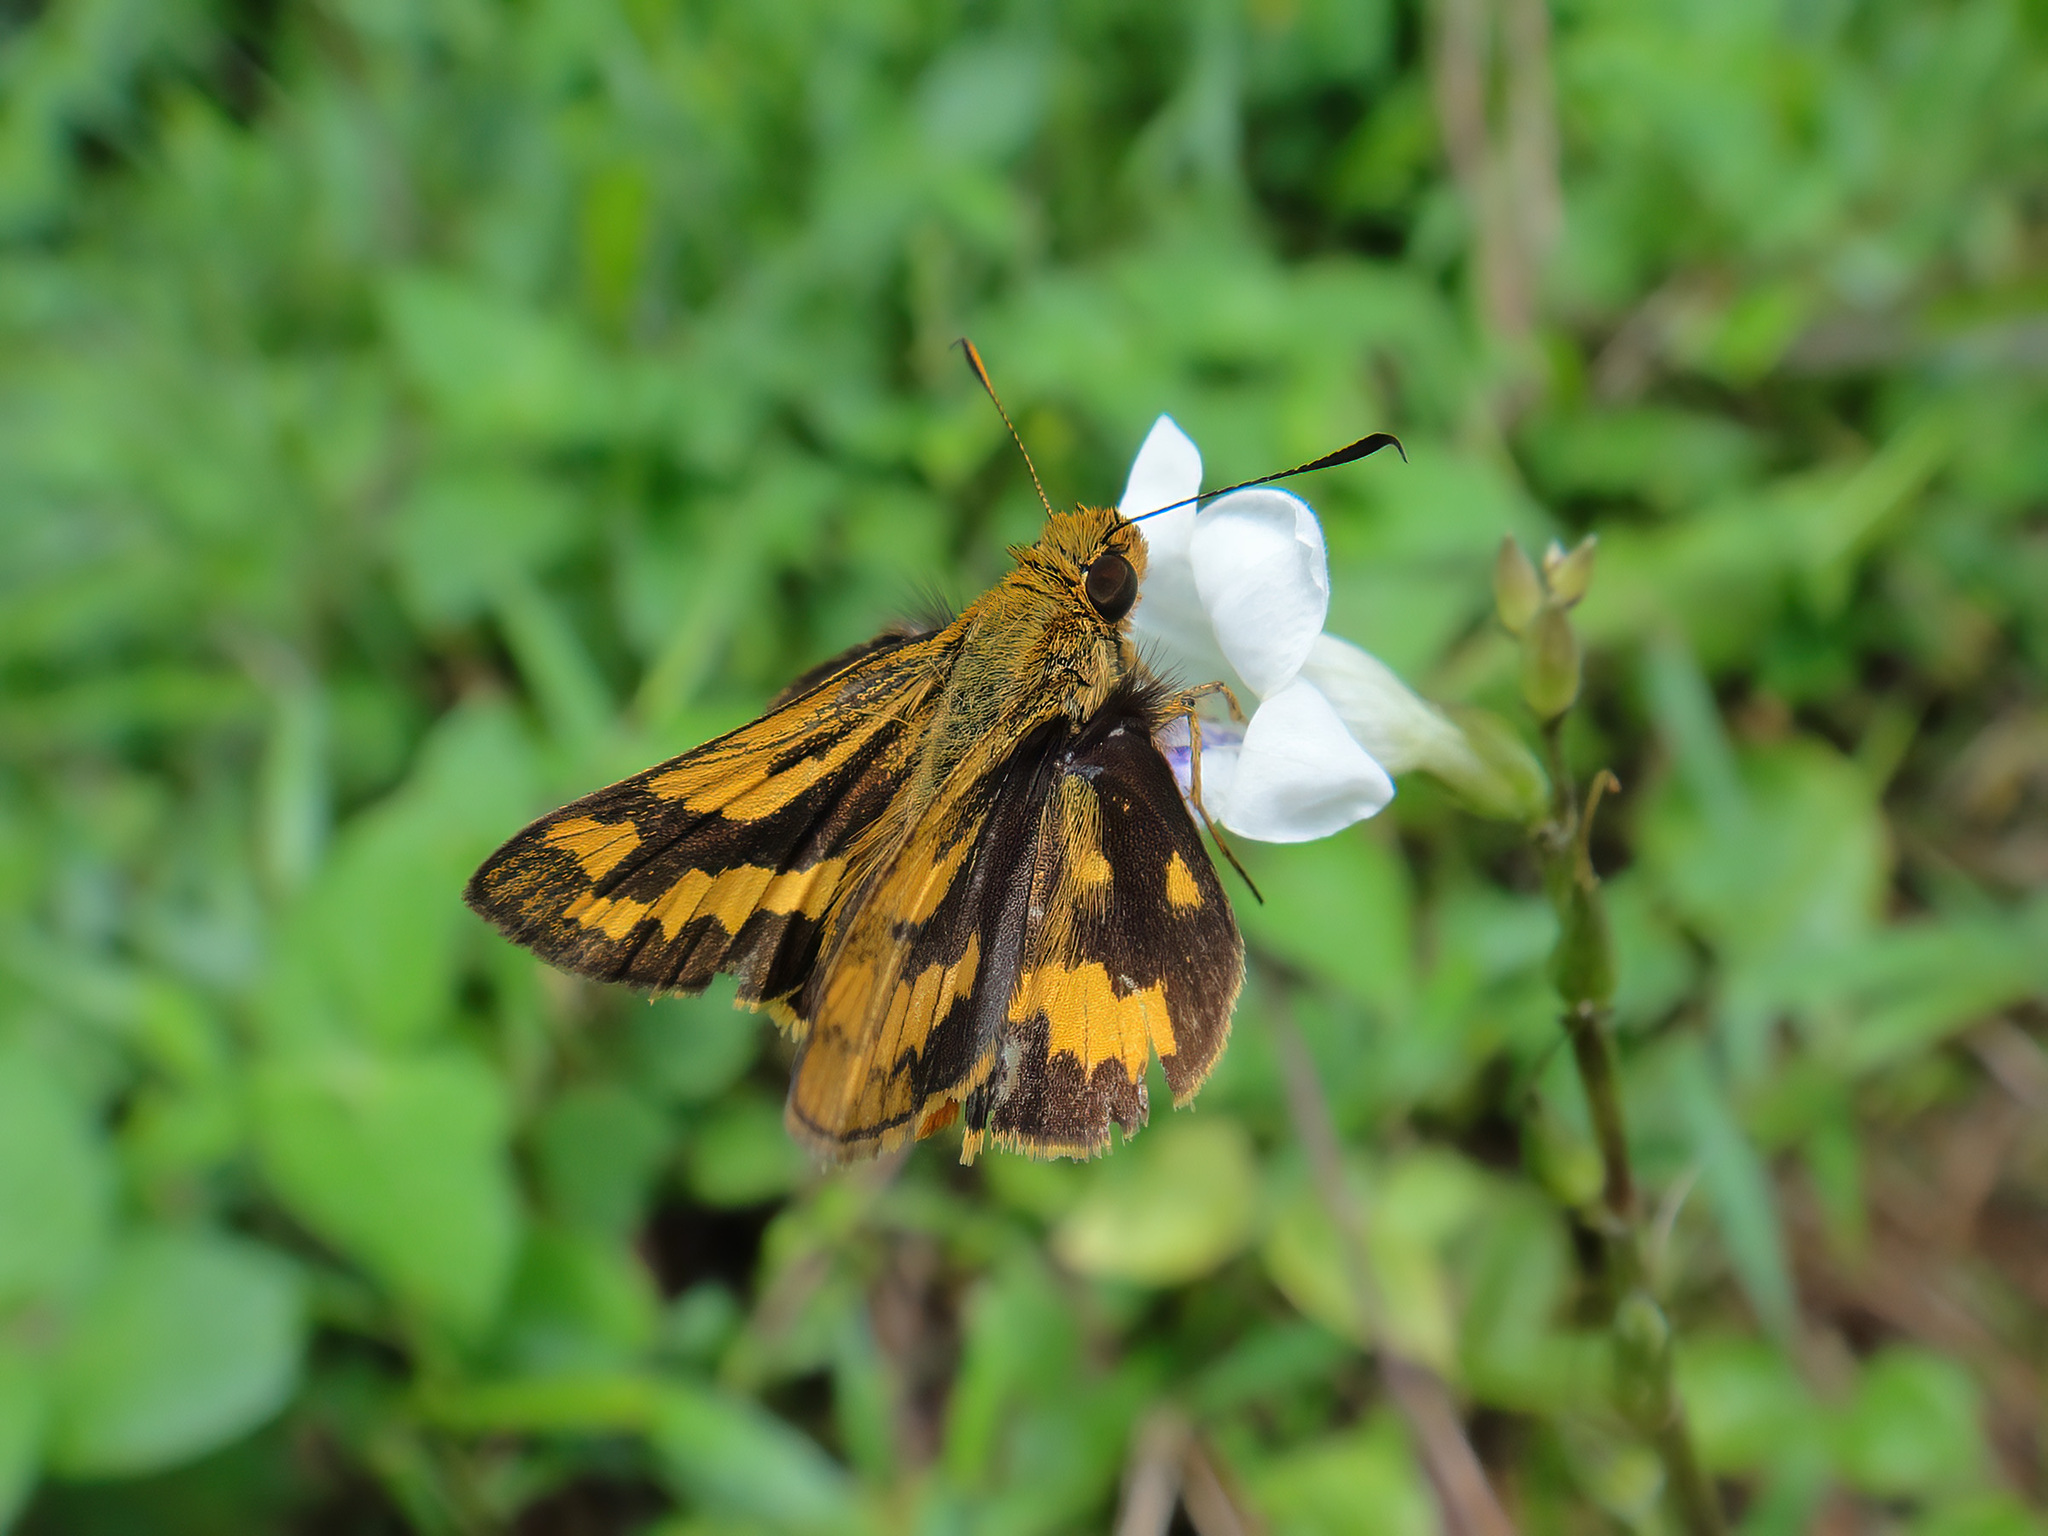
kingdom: Animalia
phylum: Arthropoda
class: Insecta
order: Lepidoptera
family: Hesperiidae
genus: Potanthus
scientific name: Potanthus omaha
